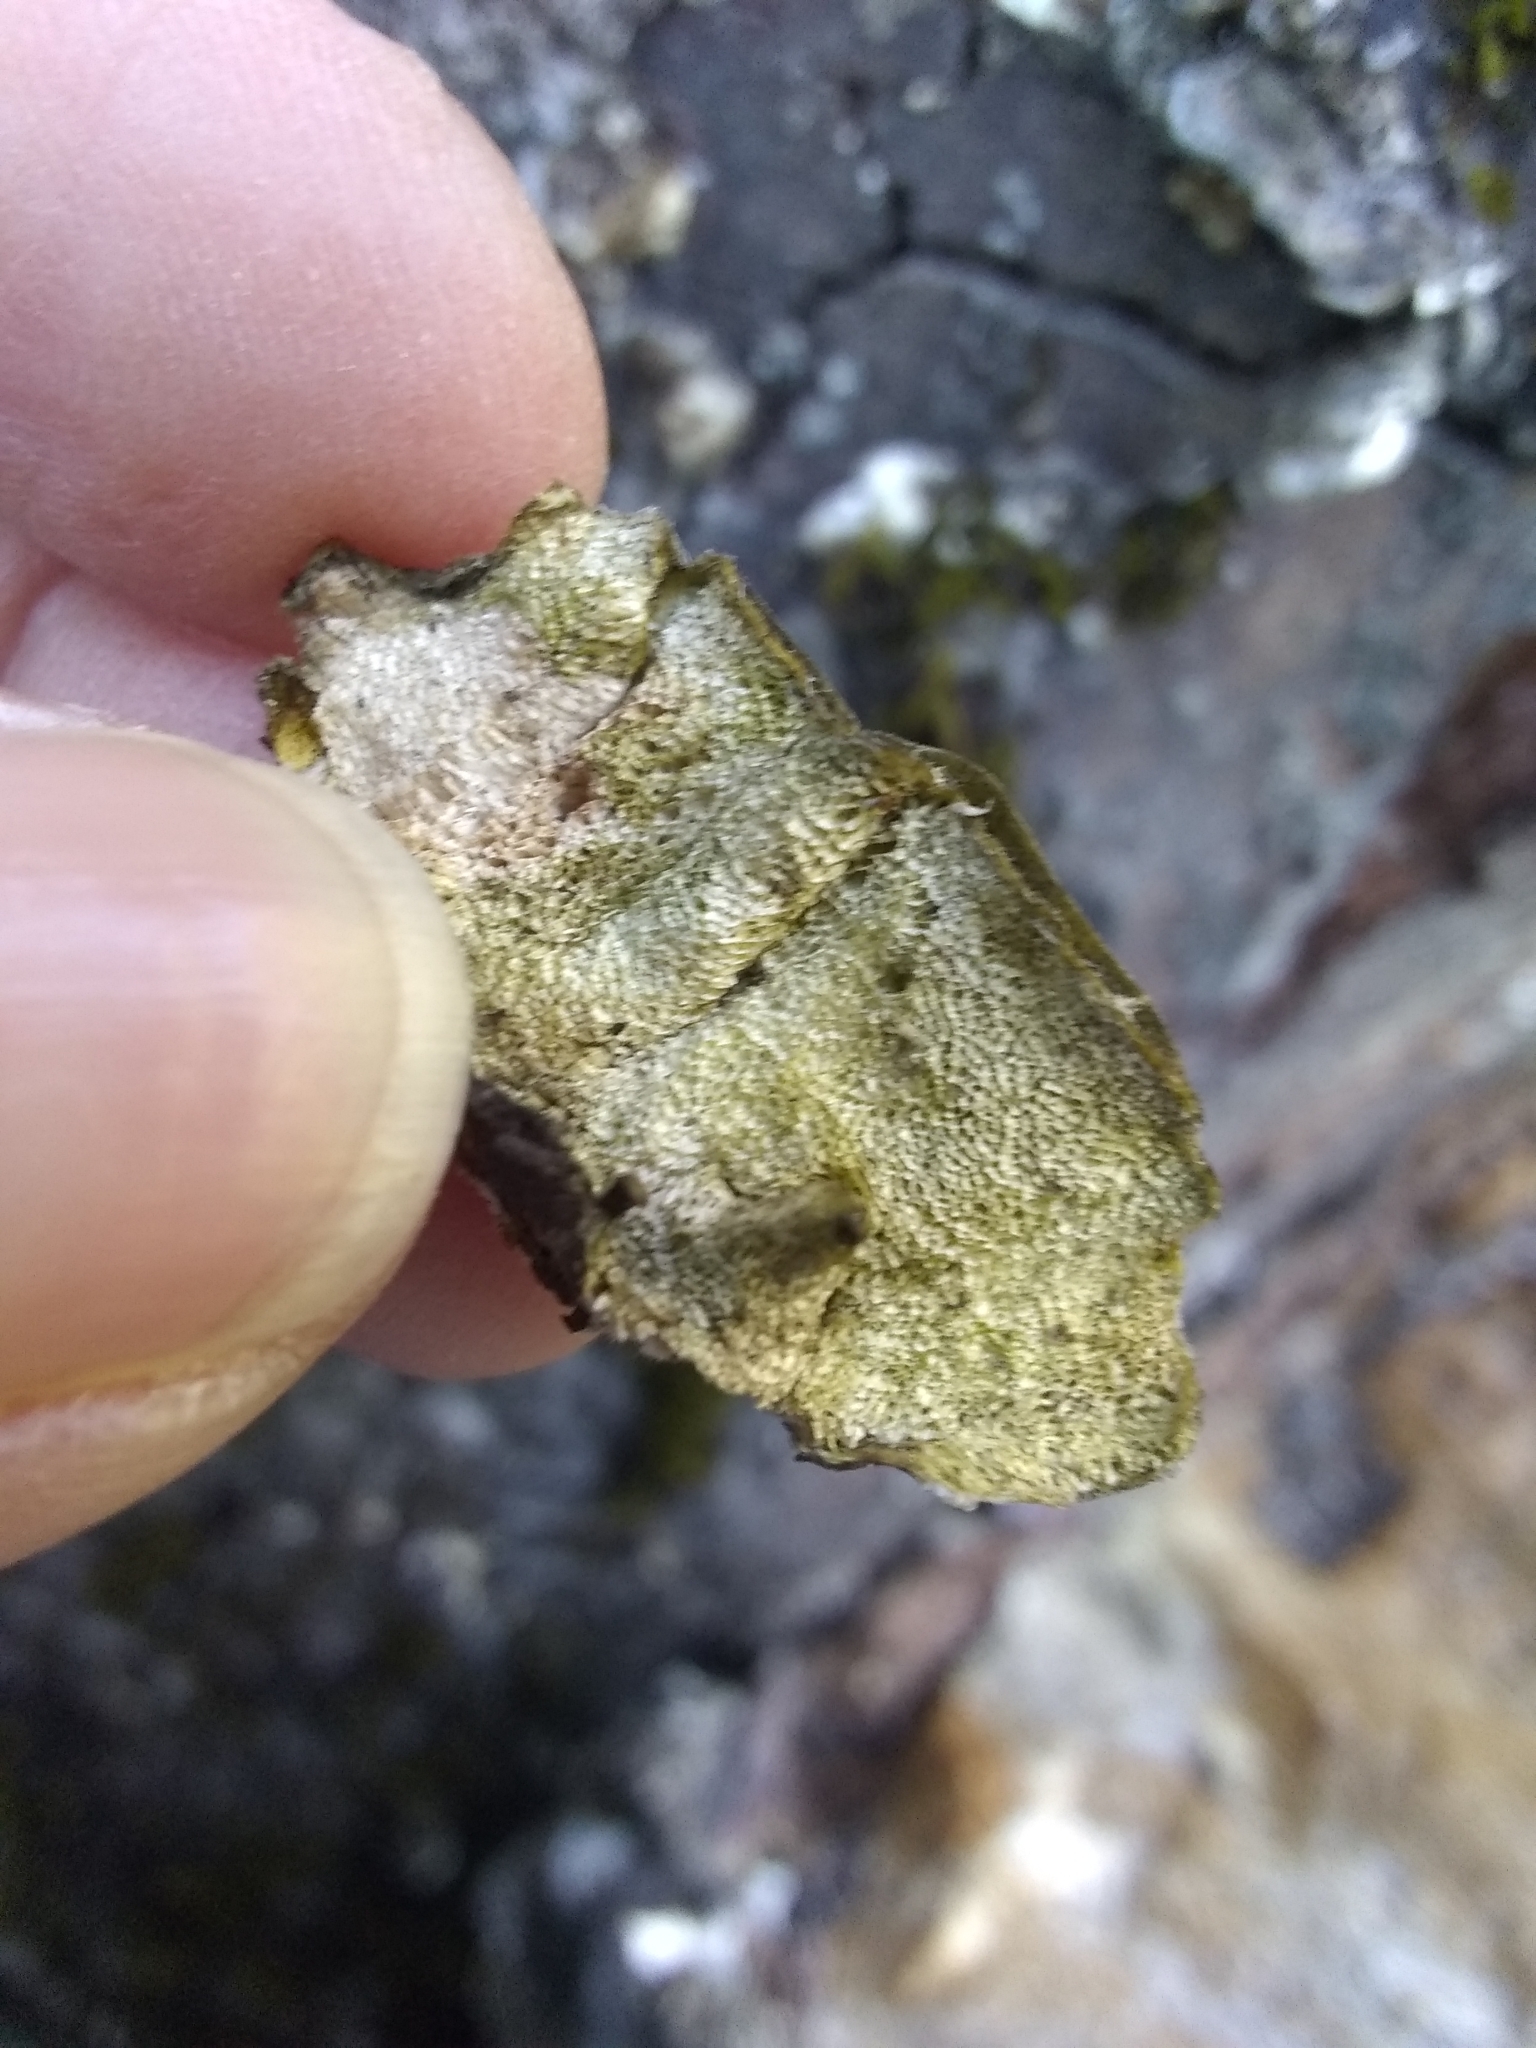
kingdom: Fungi
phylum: Basidiomycota
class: Agaricomycetes
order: Polyporales
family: Polyporaceae
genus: Trametes
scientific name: Trametes versicolor
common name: Turkeytail
